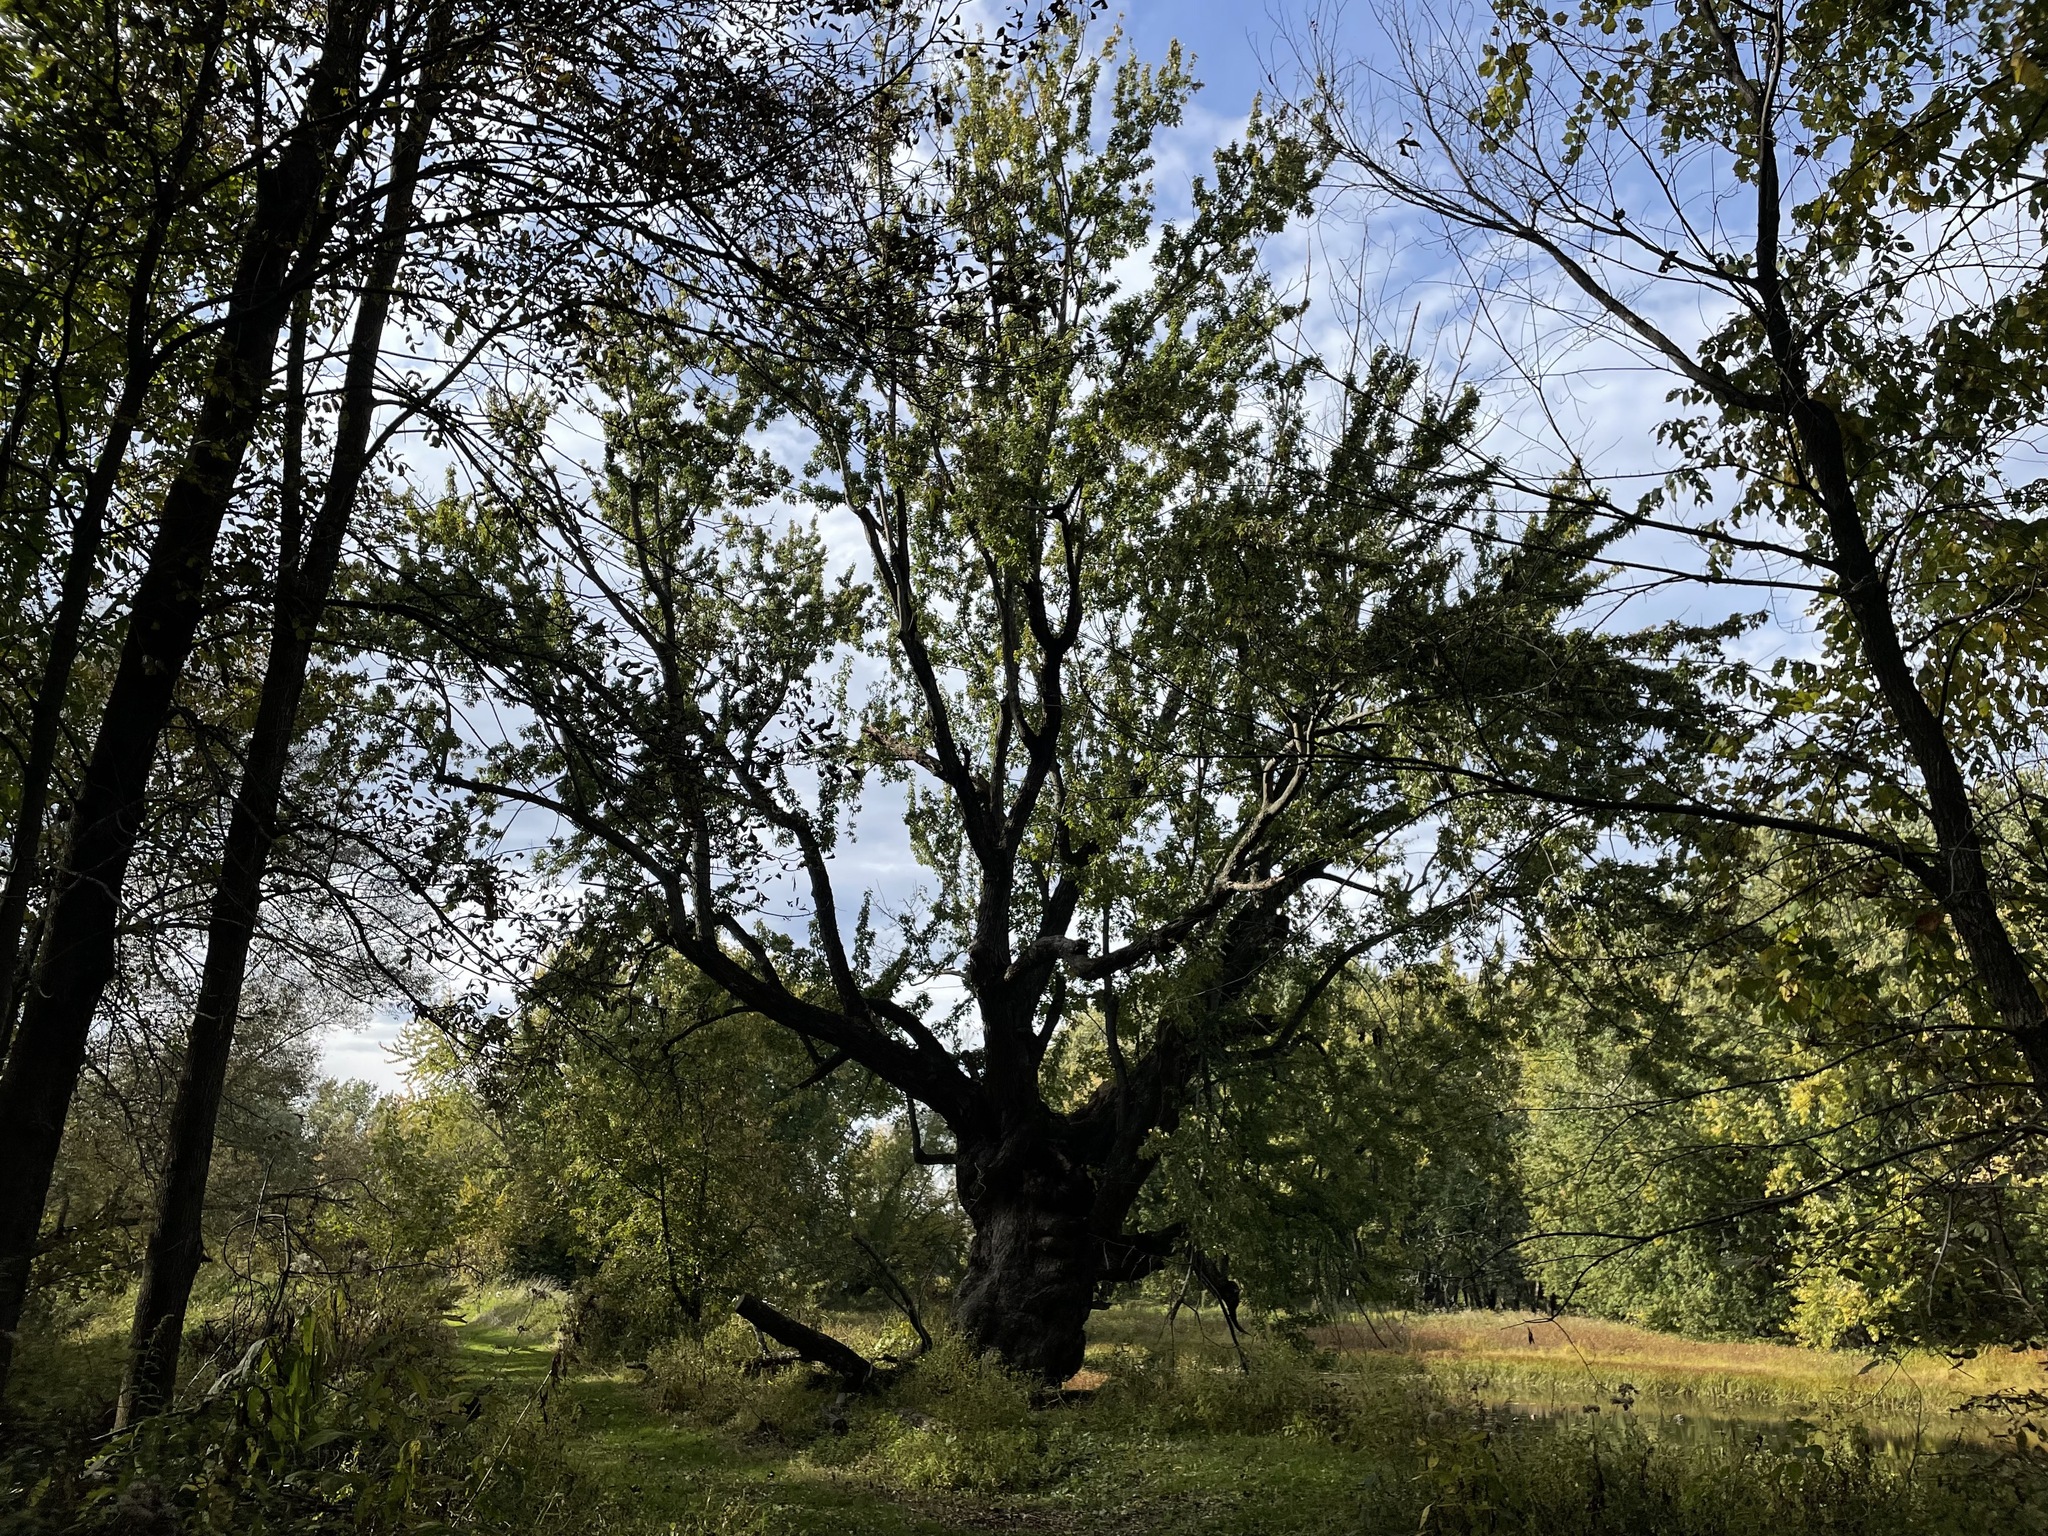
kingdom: Plantae
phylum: Tracheophyta
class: Magnoliopsida
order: Sapindales
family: Sapindaceae
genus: Acer
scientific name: Acer saccharinum
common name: Silver maple
